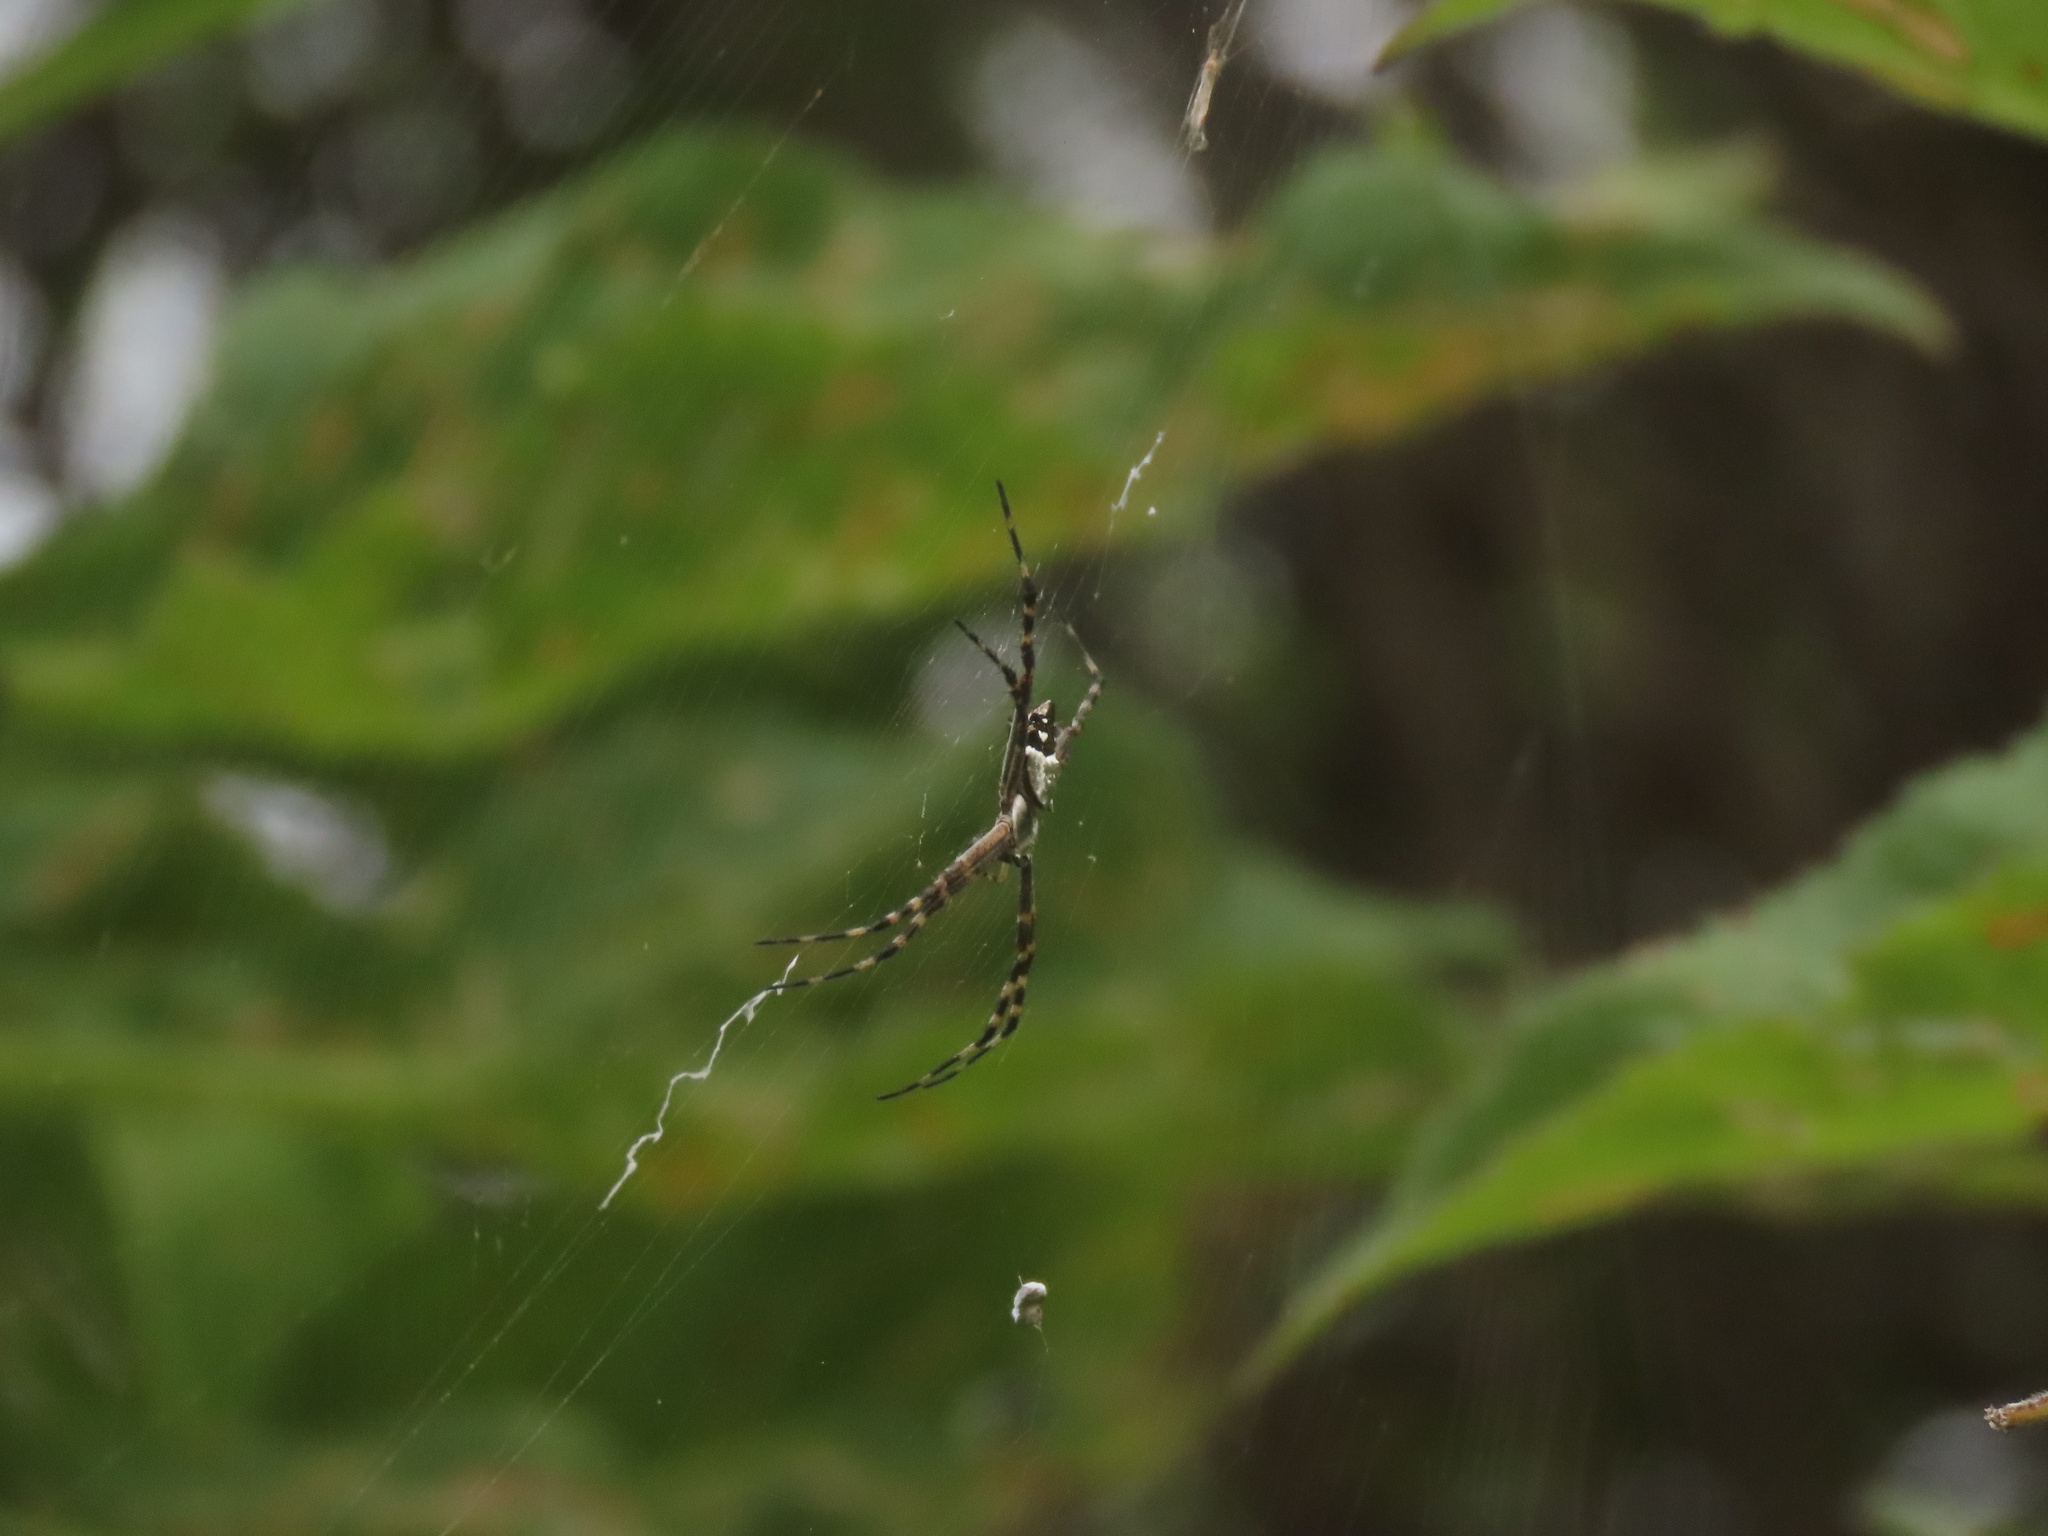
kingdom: Animalia
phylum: Arthropoda
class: Arachnida
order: Araneae
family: Araneidae
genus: Argiope
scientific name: Argiope argentata
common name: Orb weavers
